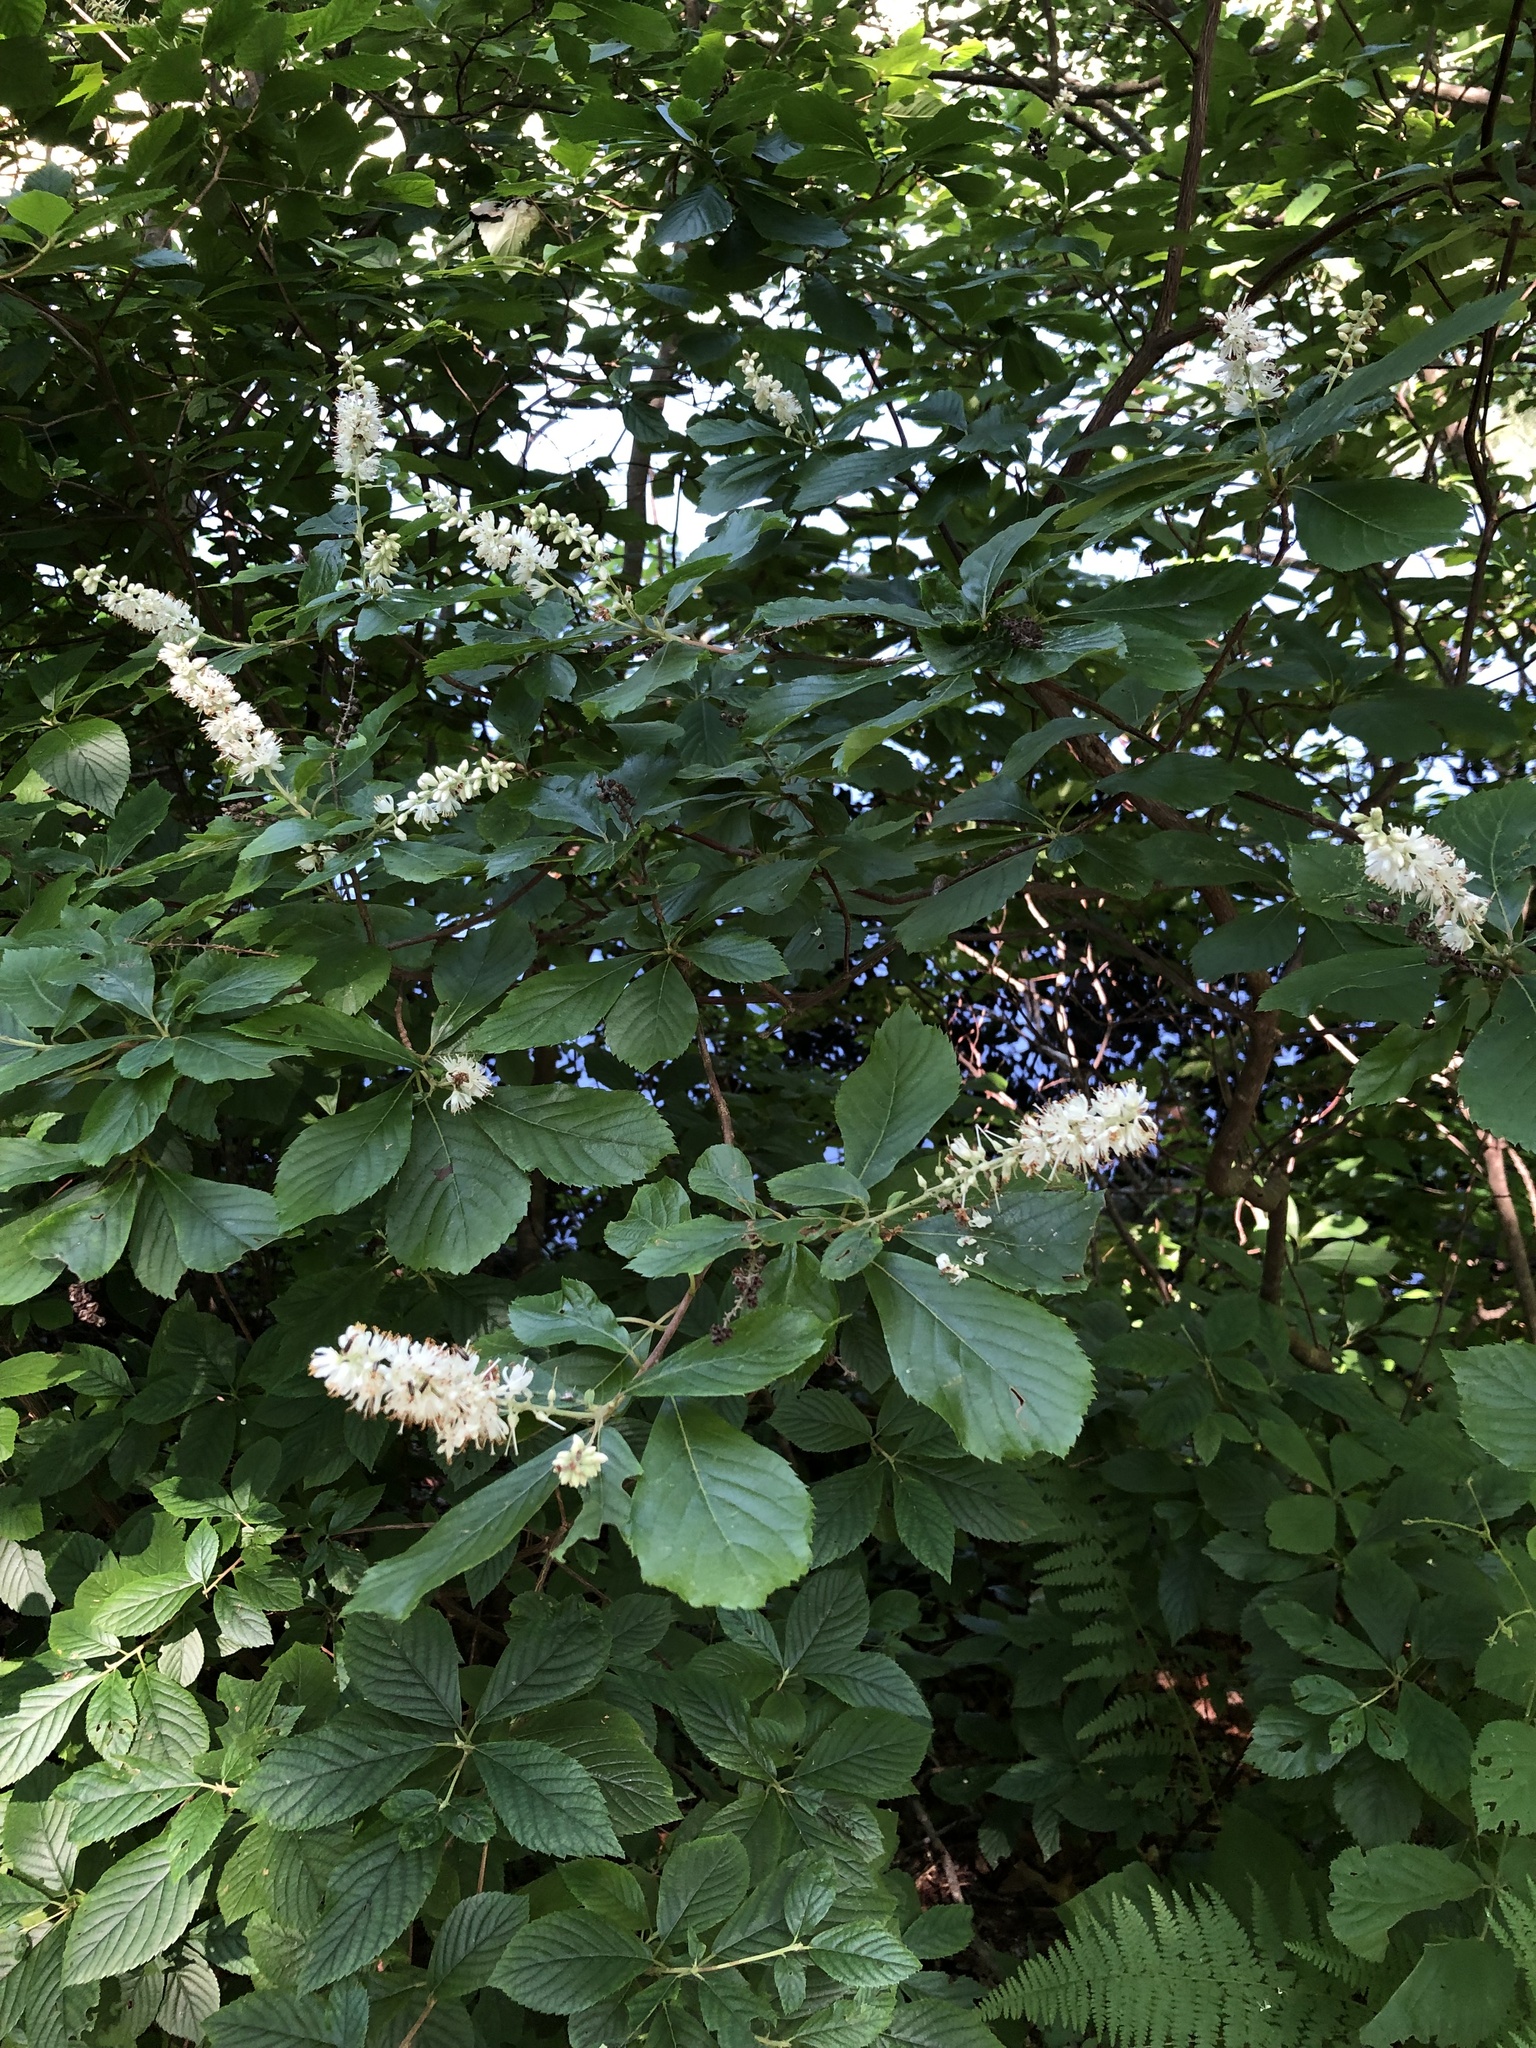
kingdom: Plantae
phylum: Tracheophyta
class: Magnoliopsida
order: Ericales
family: Clethraceae
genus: Clethra
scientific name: Clethra alnifolia
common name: Sweet pepperbush
